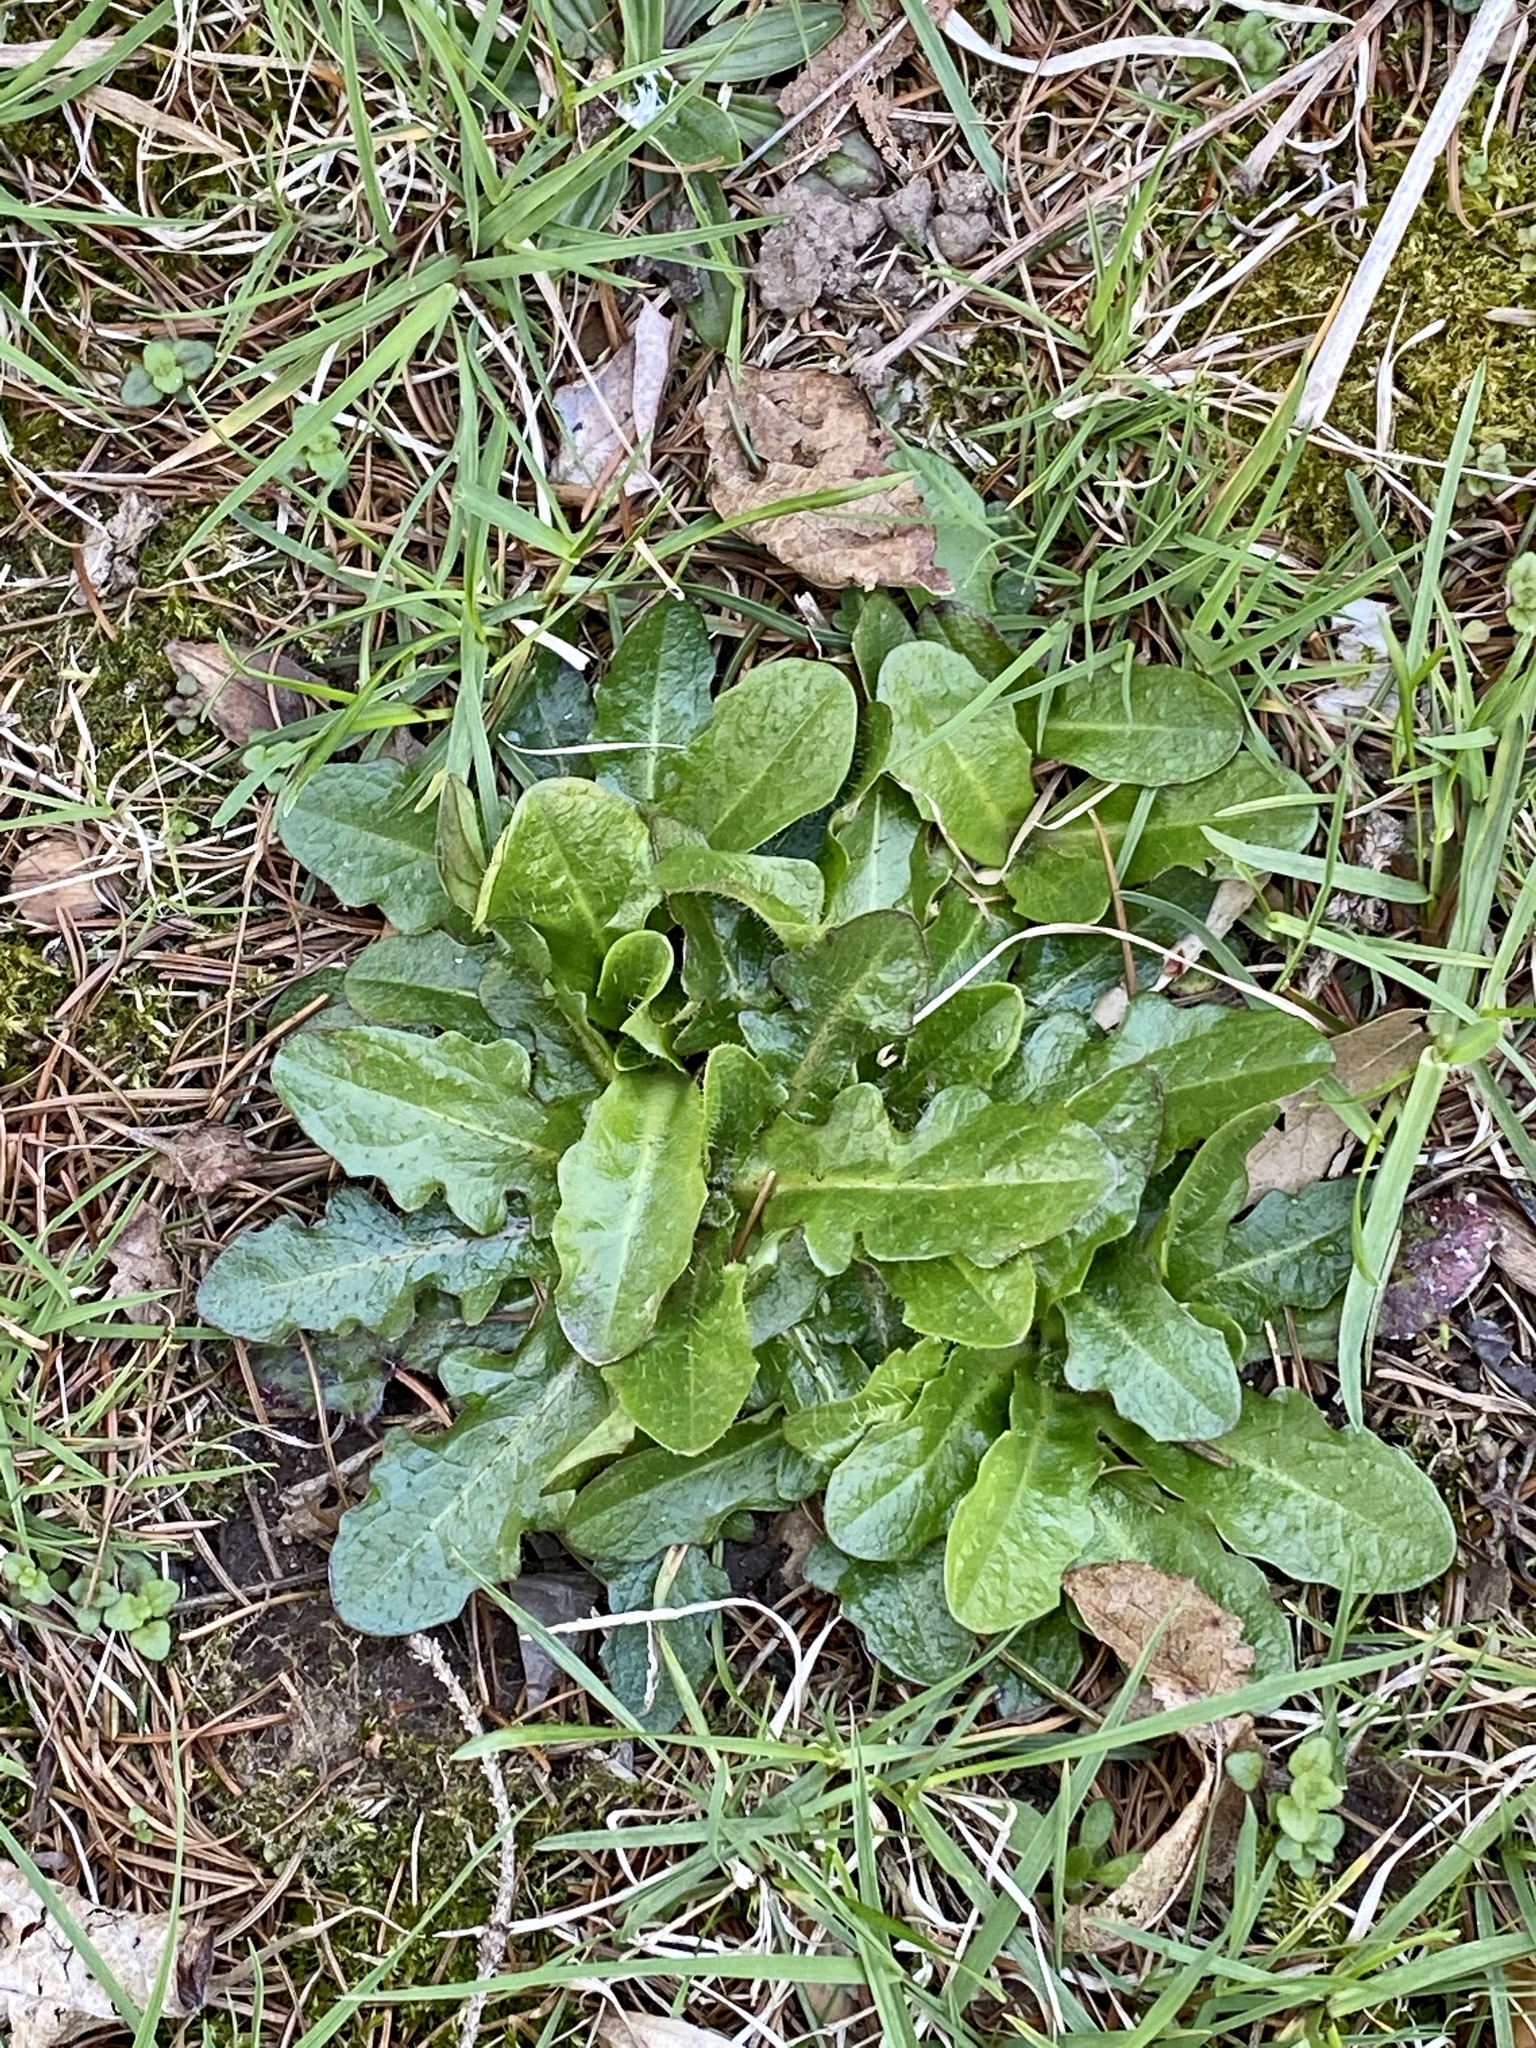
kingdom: Plantae
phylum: Tracheophyta
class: Magnoliopsida
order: Asterales
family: Asteraceae
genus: Hypochaeris
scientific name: Hypochaeris radicata
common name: Flatweed
